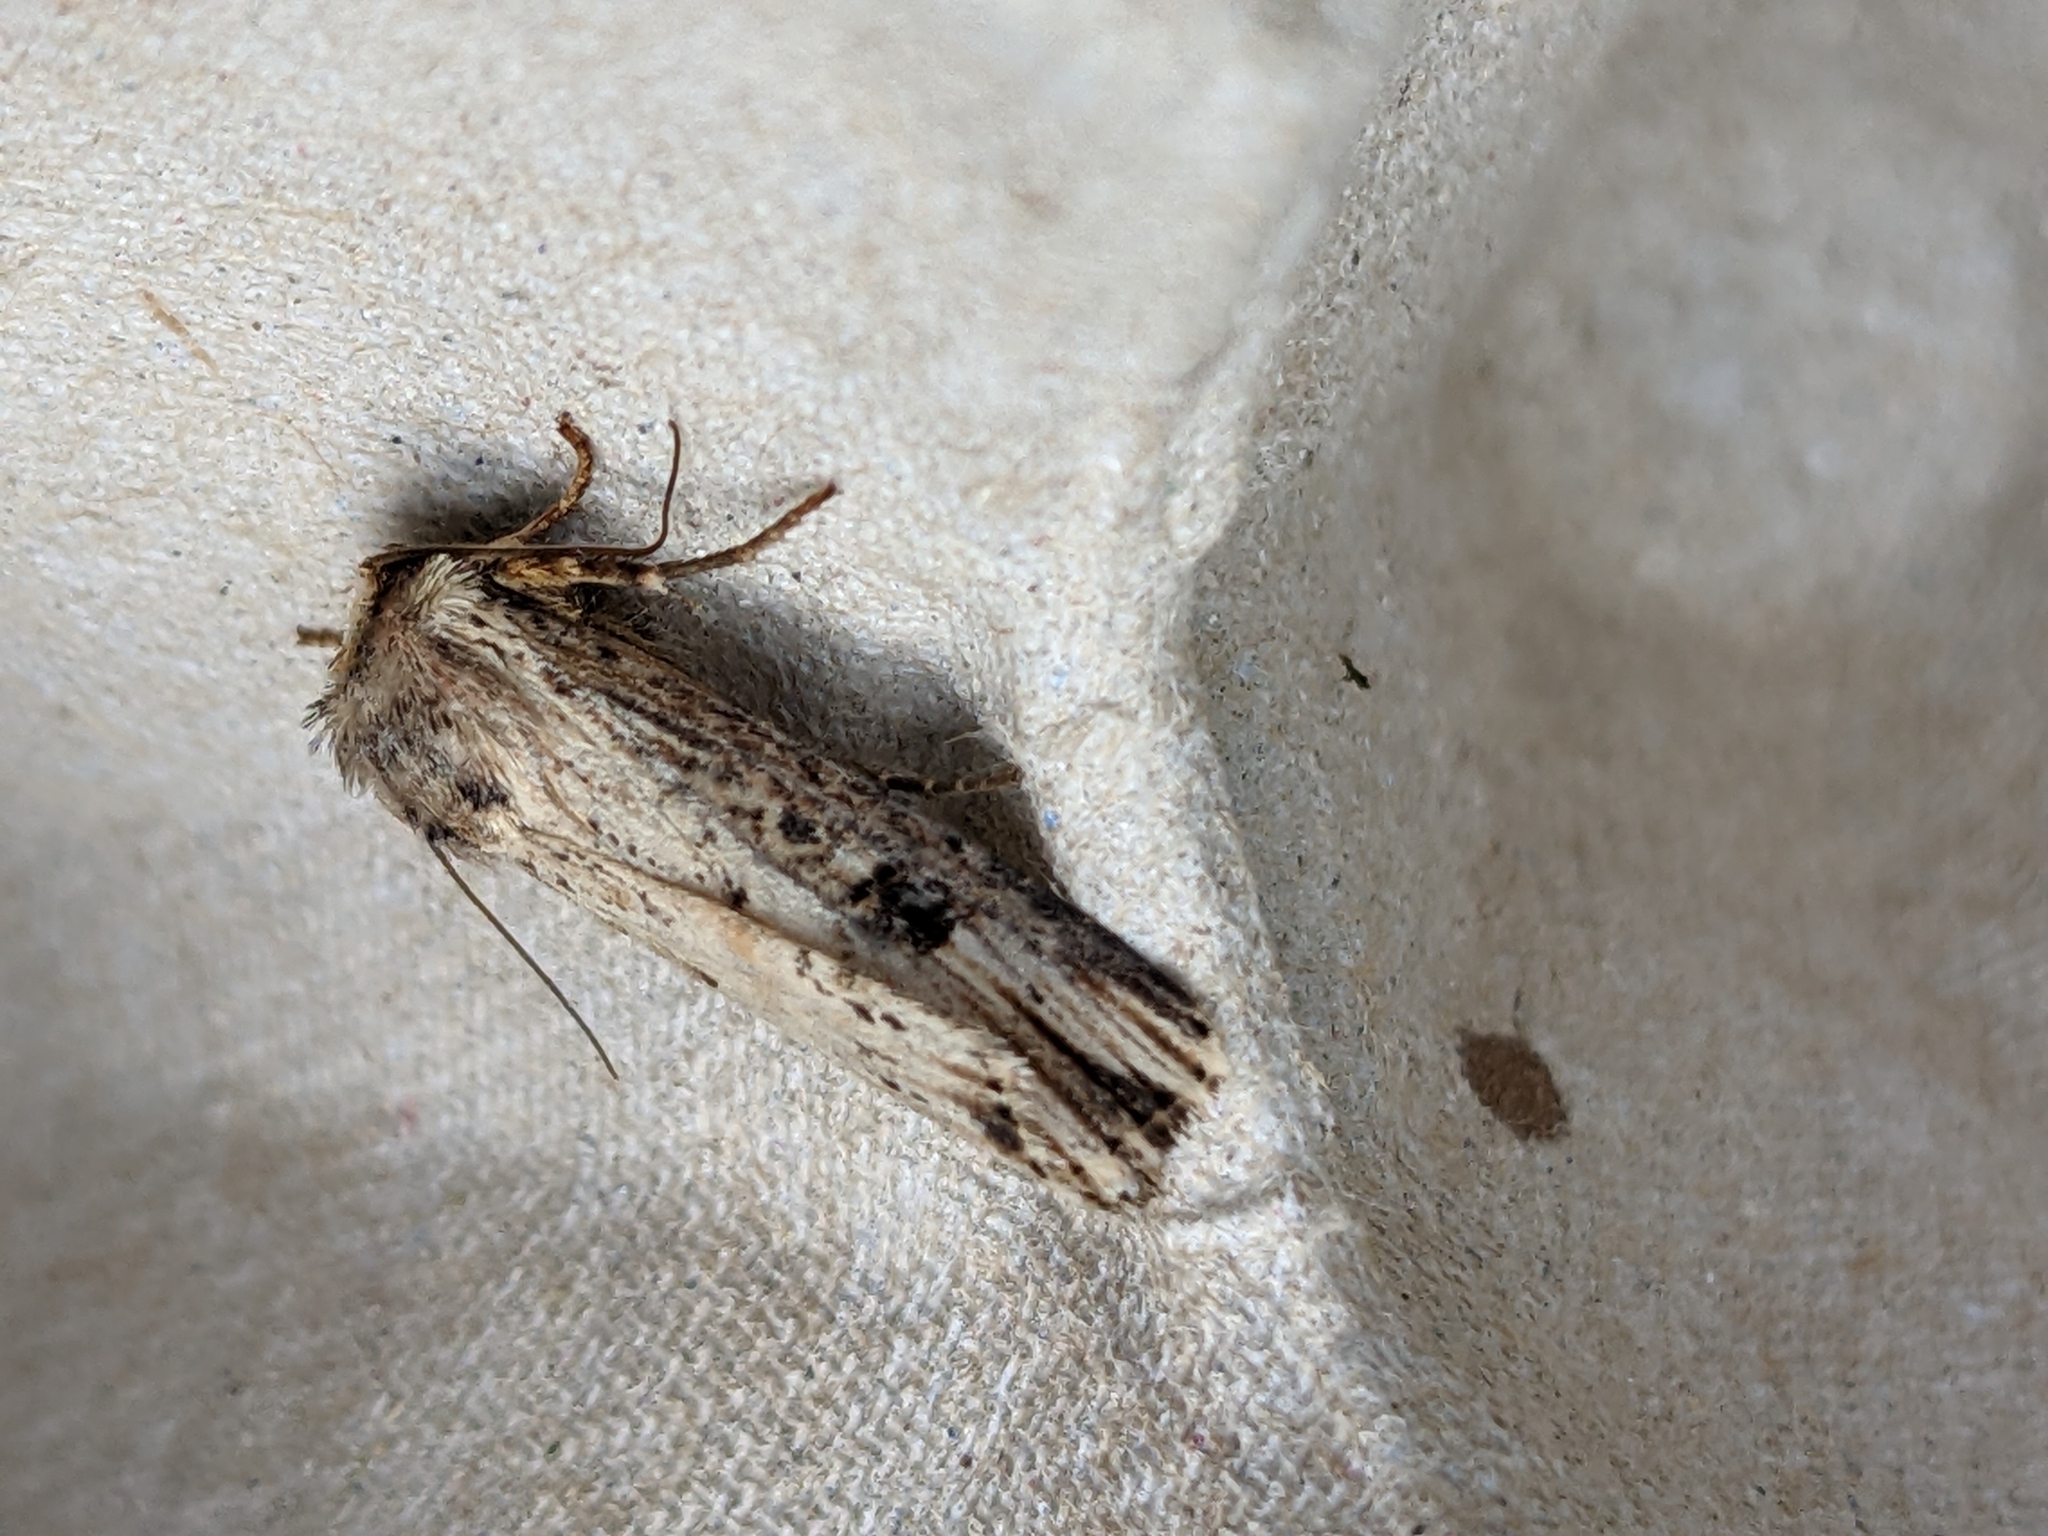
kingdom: Animalia
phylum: Arthropoda
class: Insecta
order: Lepidoptera
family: Noctuidae
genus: Axylia
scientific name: Axylia putris
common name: Flame
